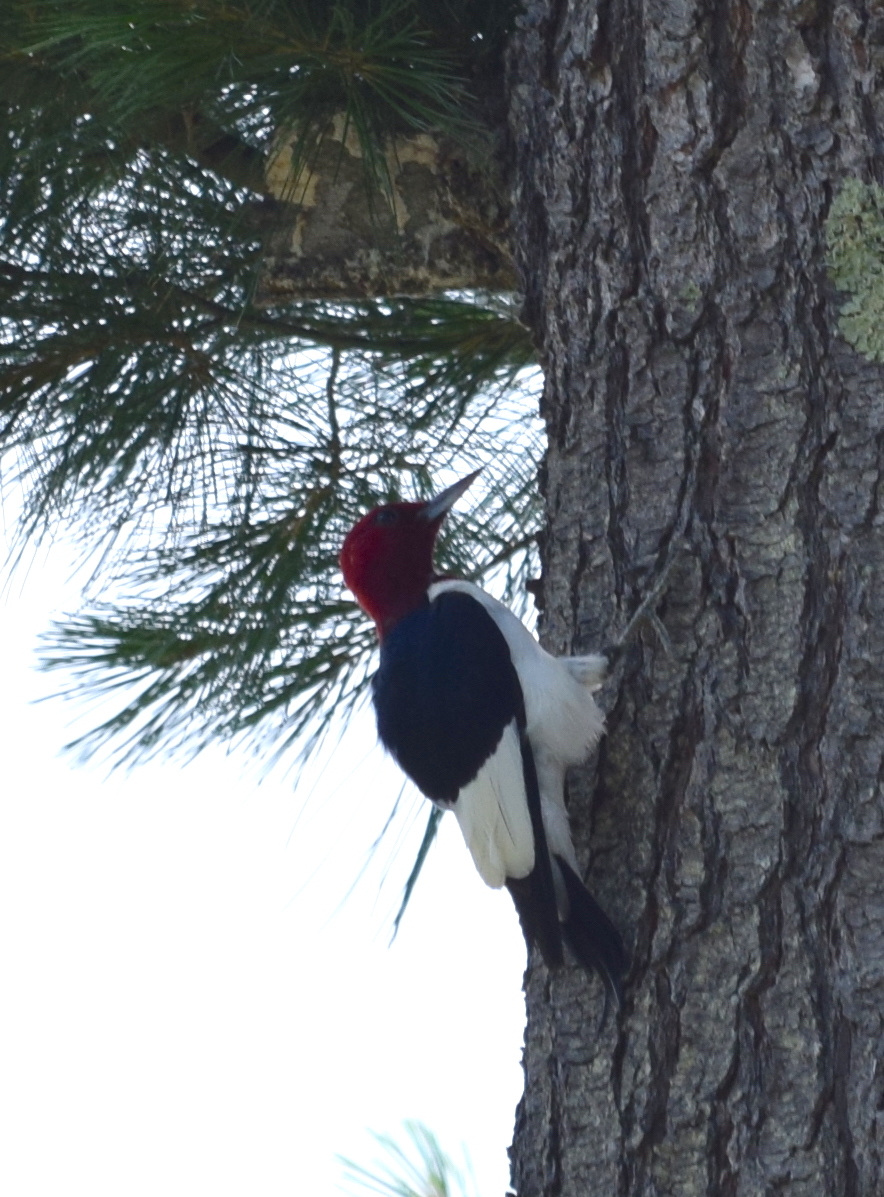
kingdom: Animalia
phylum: Chordata
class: Aves
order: Piciformes
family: Picidae
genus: Melanerpes
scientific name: Melanerpes erythrocephalus
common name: Red-headed woodpecker
